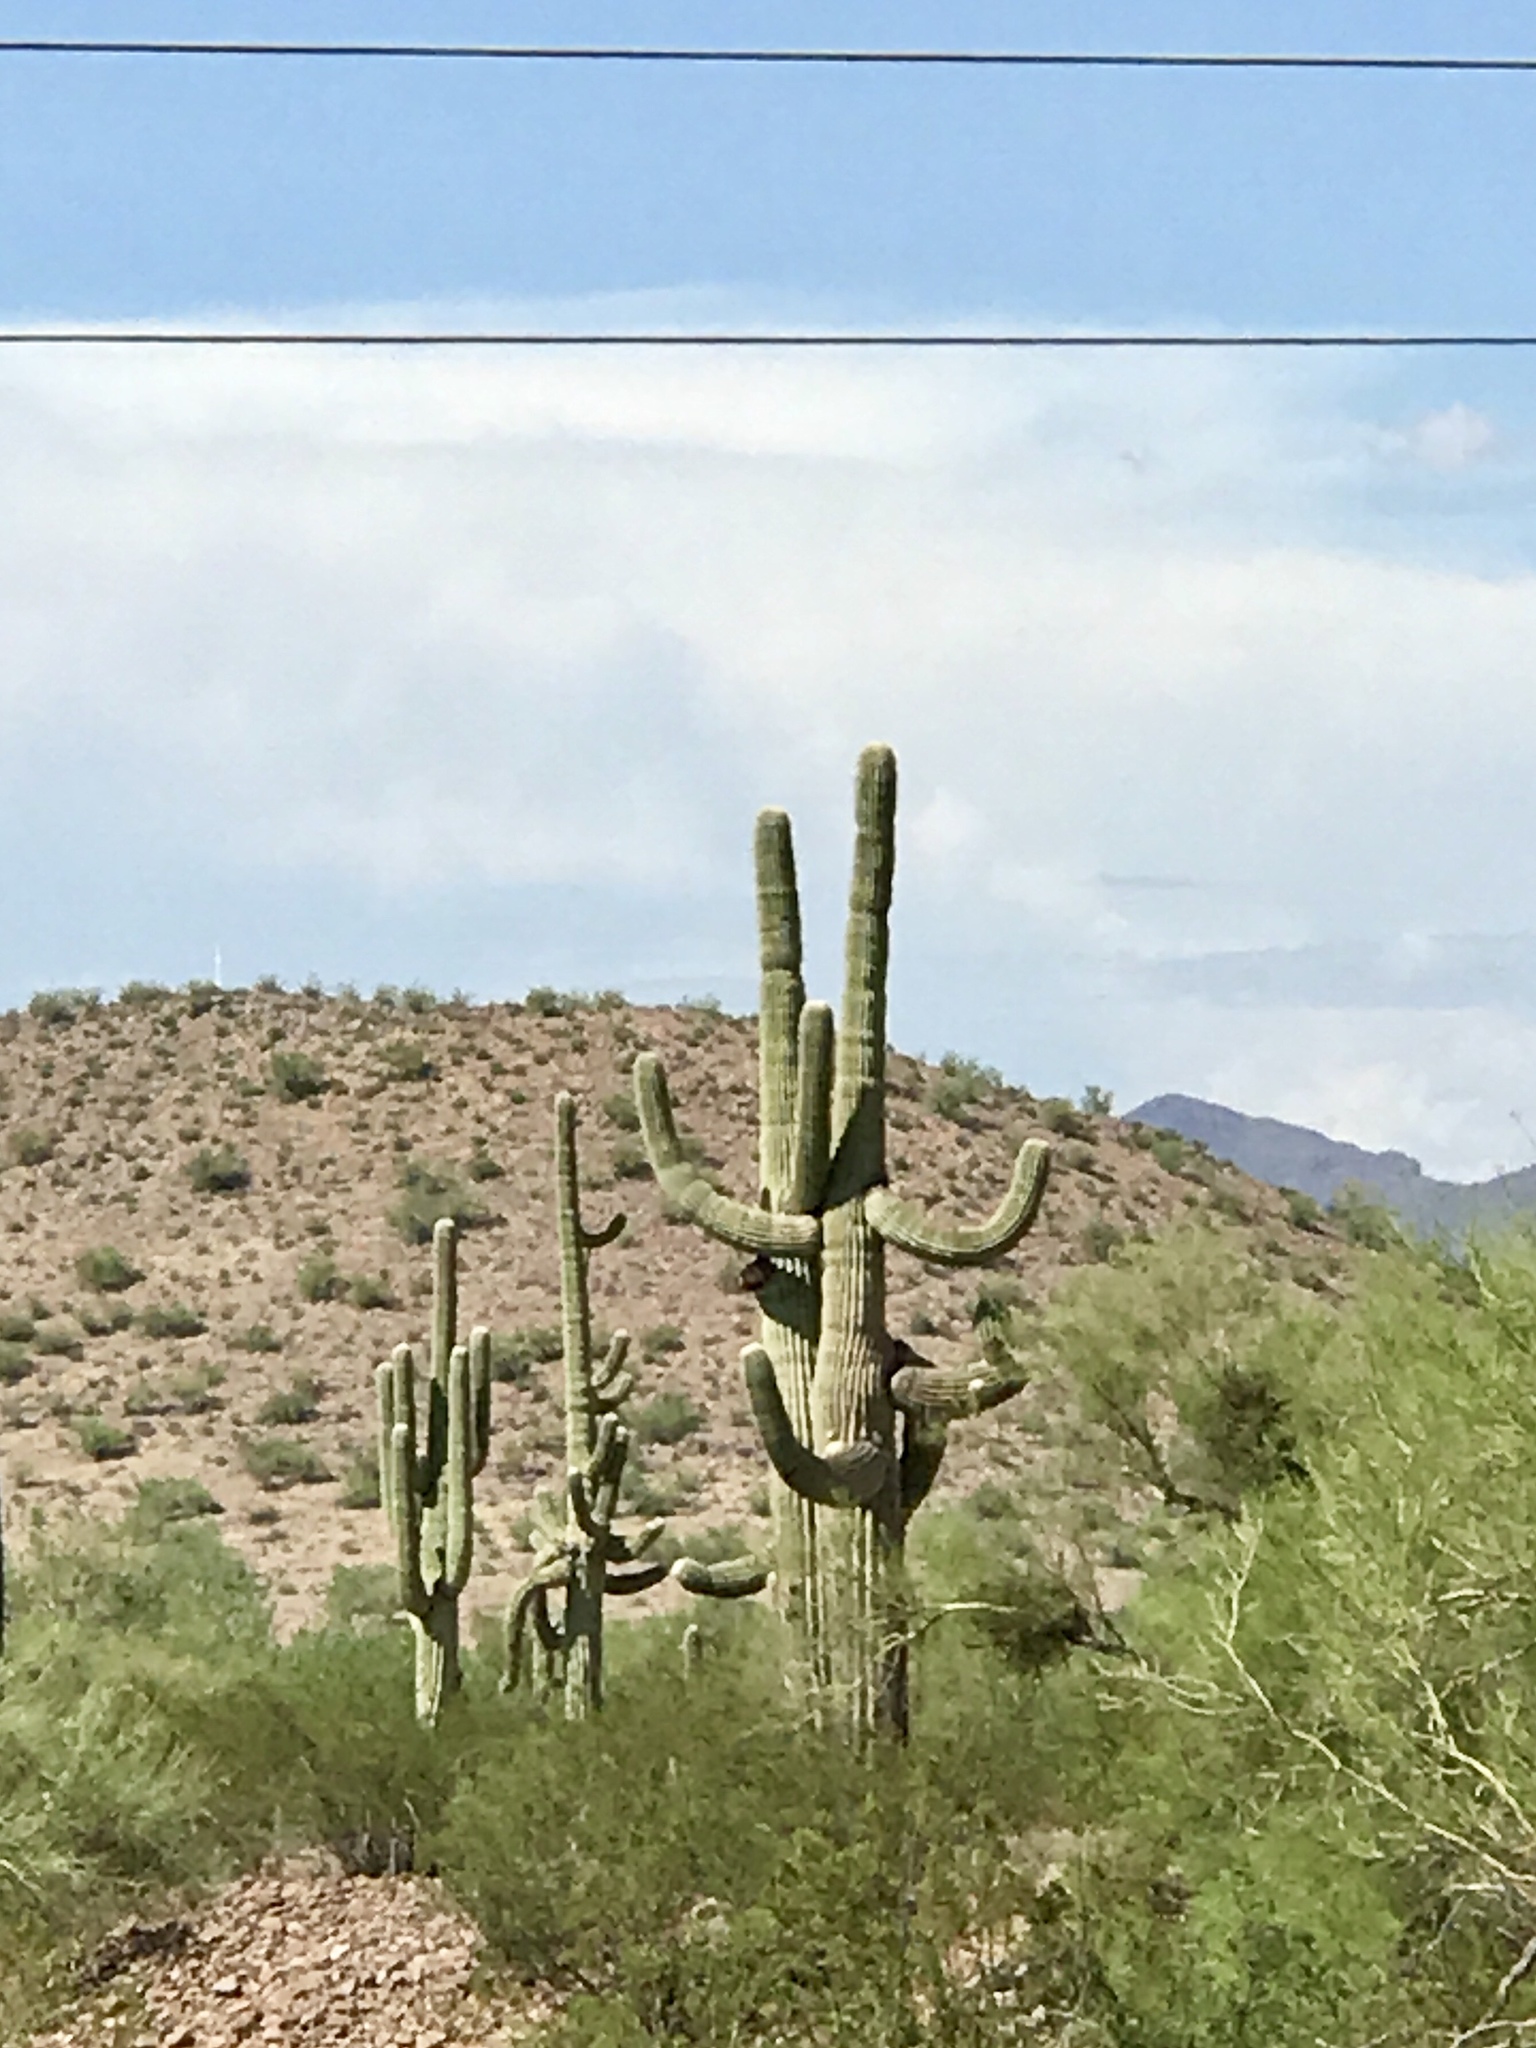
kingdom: Plantae
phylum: Tracheophyta
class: Magnoliopsida
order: Caryophyllales
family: Cactaceae
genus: Carnegiea
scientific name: Carnegiea gigantea
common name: Saguaro
